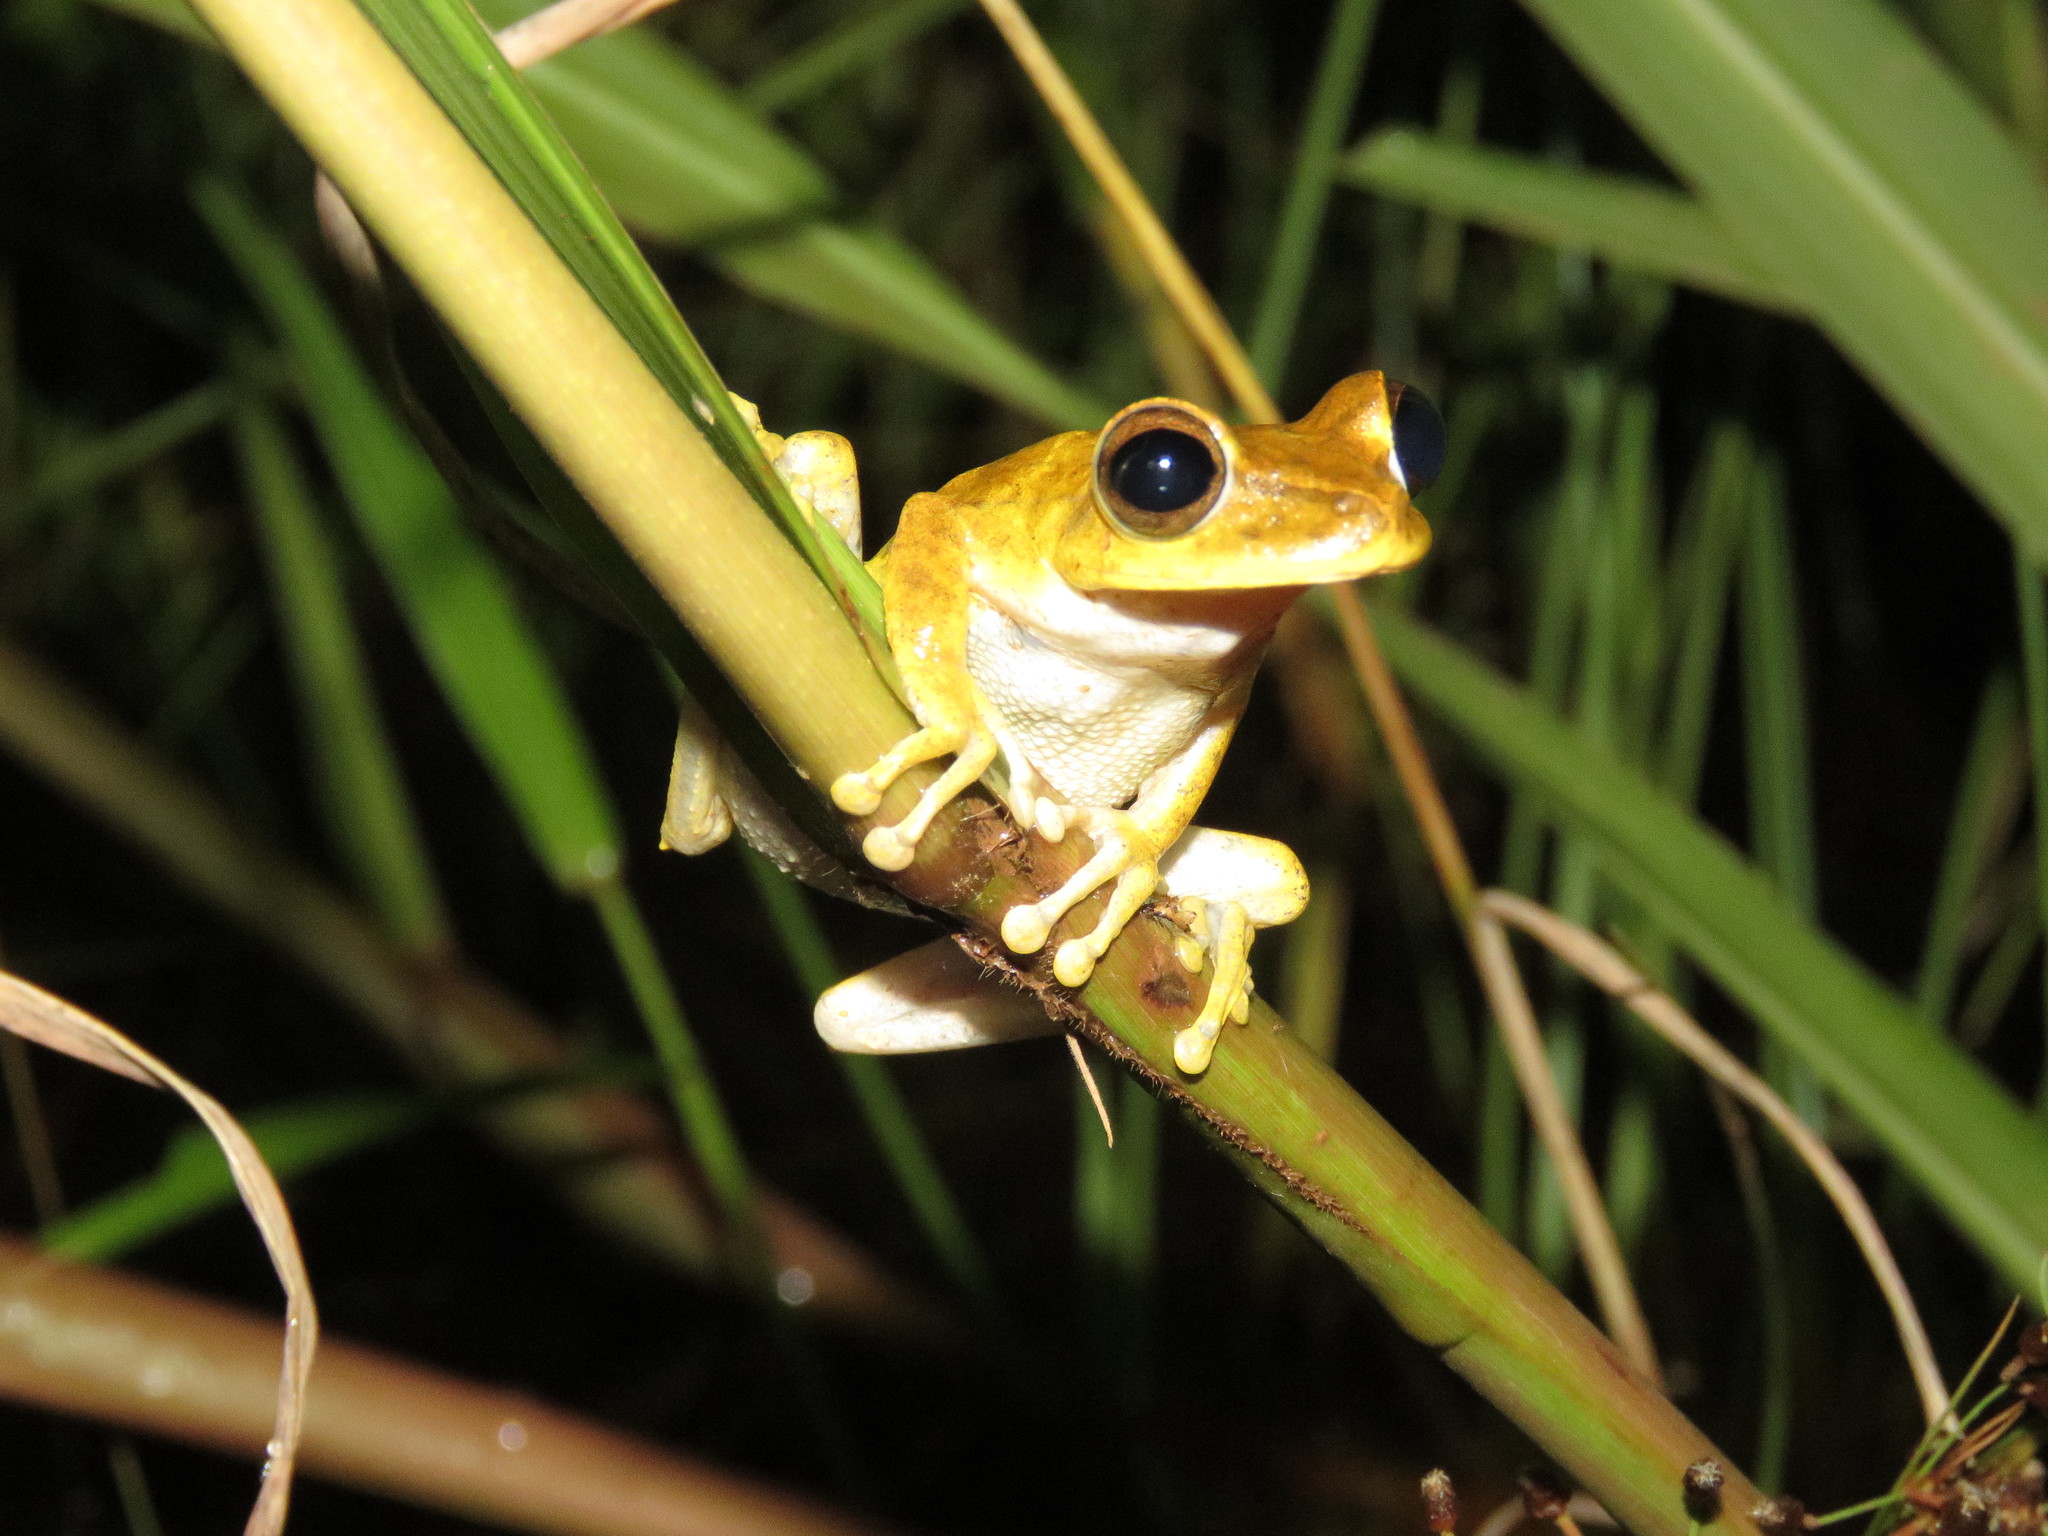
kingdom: Animalia
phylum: Chordata
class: Amphibia
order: Anura
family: Hylidae
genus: Boana
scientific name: Boana steinbachi
